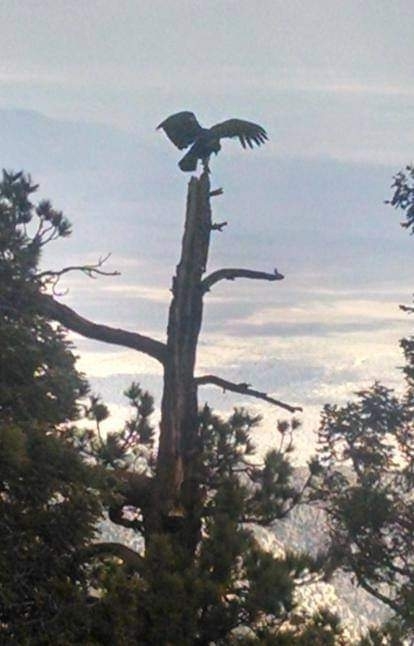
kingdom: Animalia
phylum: Chordata
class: Aves
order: Accipitriformes
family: Cathartidae
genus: Gymnogyps
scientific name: Gymnogyps californianus
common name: California condor
